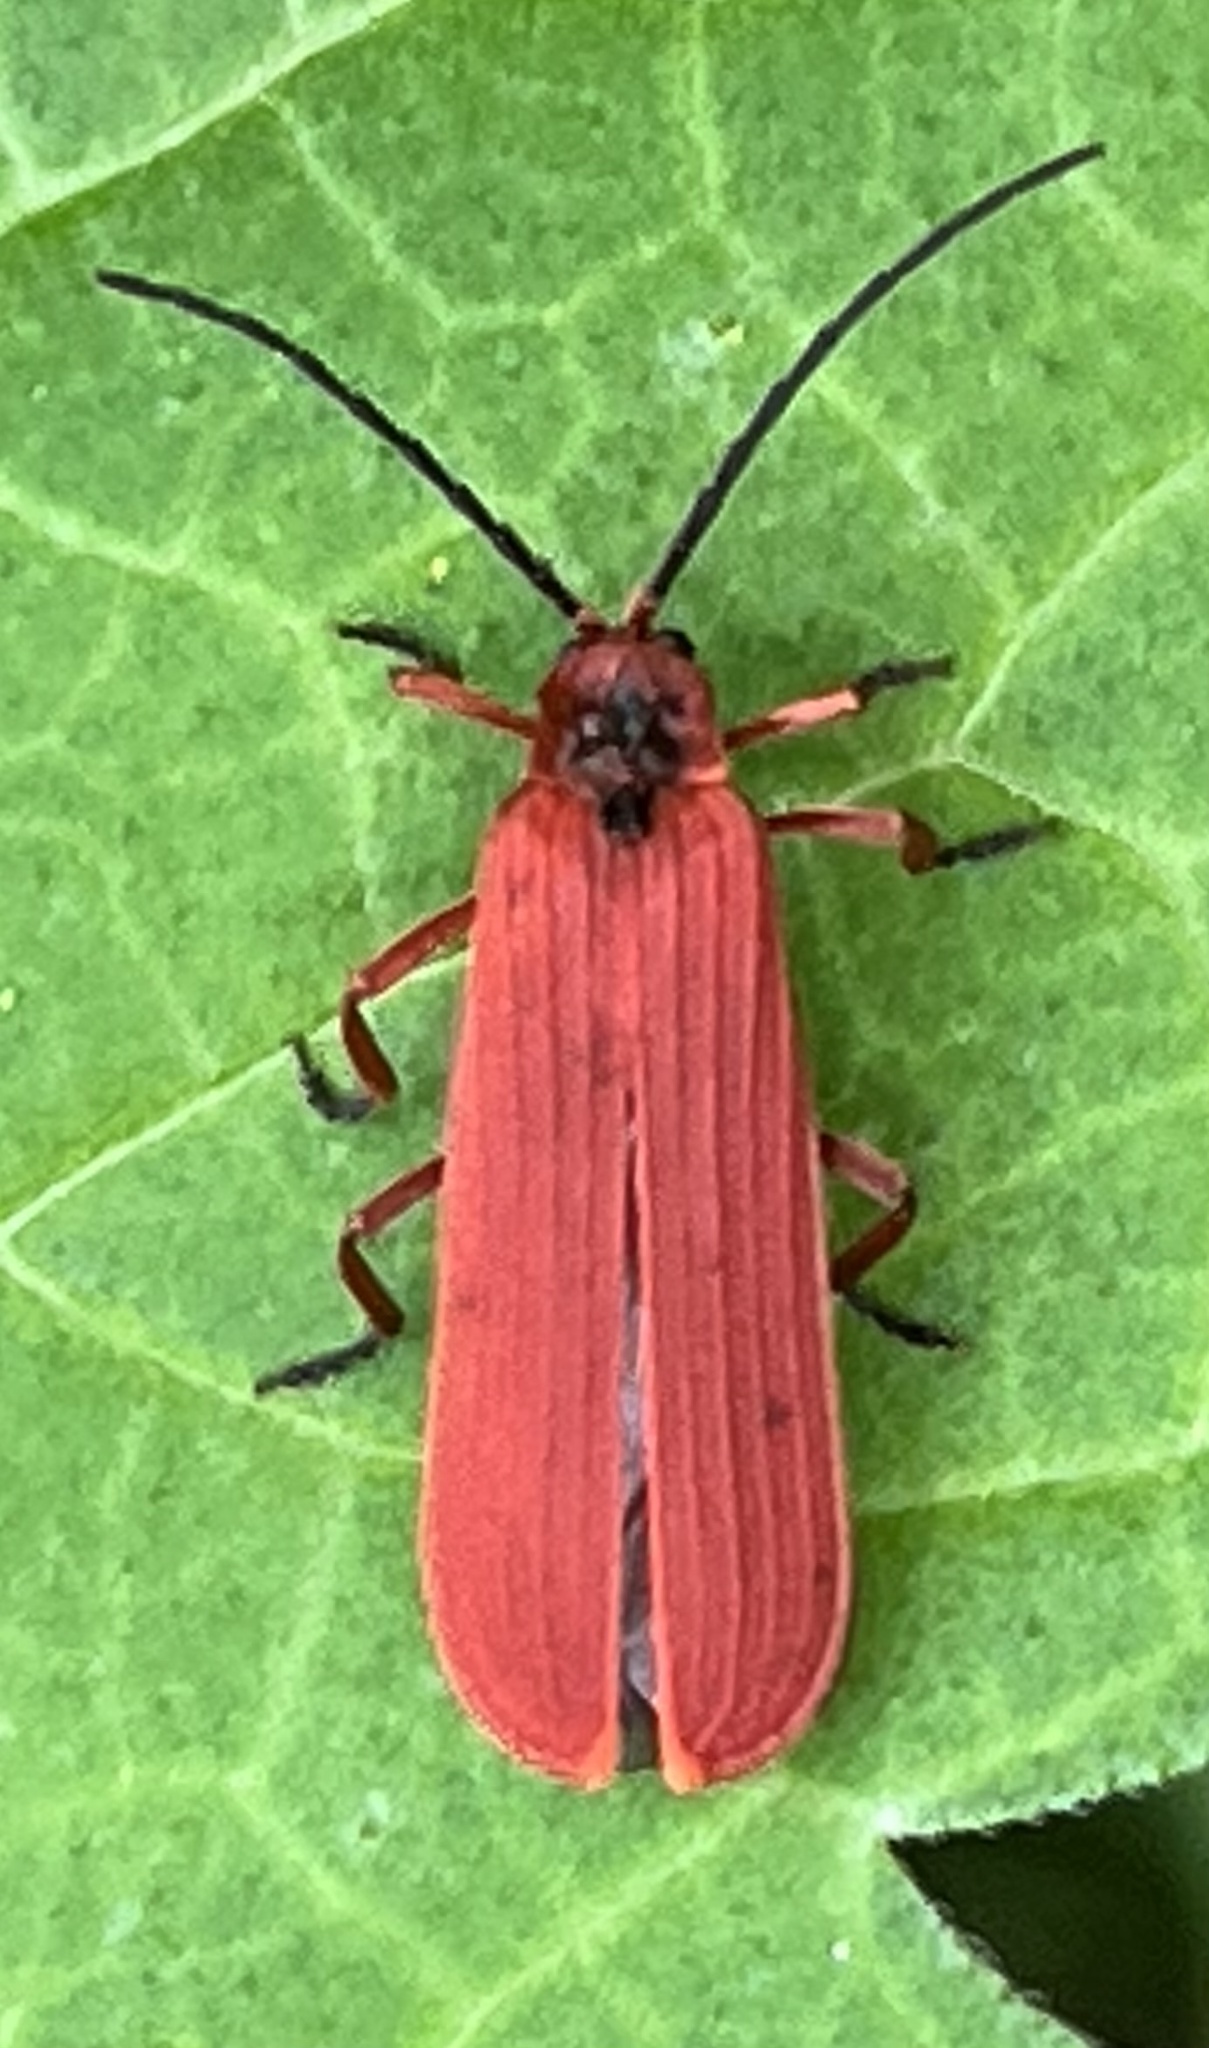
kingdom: Animalia
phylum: Arthropoda
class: Insecta
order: Coleoptera
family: Lycidae
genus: Dictyoptera
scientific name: Dictyoptera simplicipes
